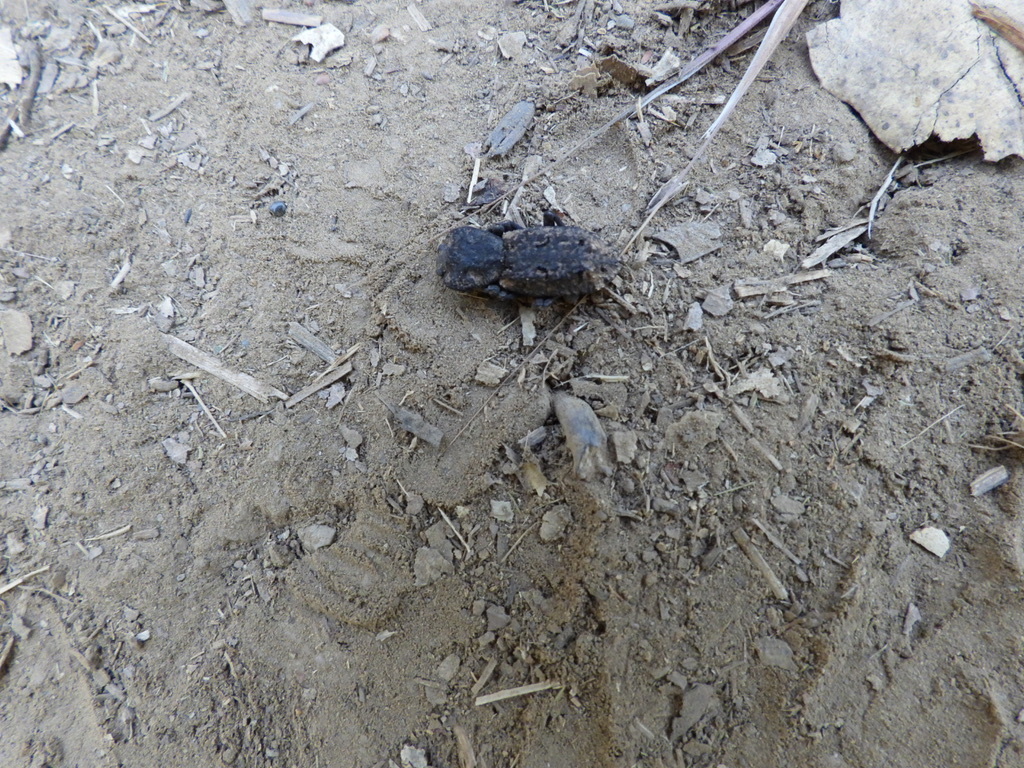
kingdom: Animalia
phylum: Arthropoda
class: Insecta
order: Coleoptera
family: Zopheridae
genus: Phloeodes
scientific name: Phloeodes diabolicus
